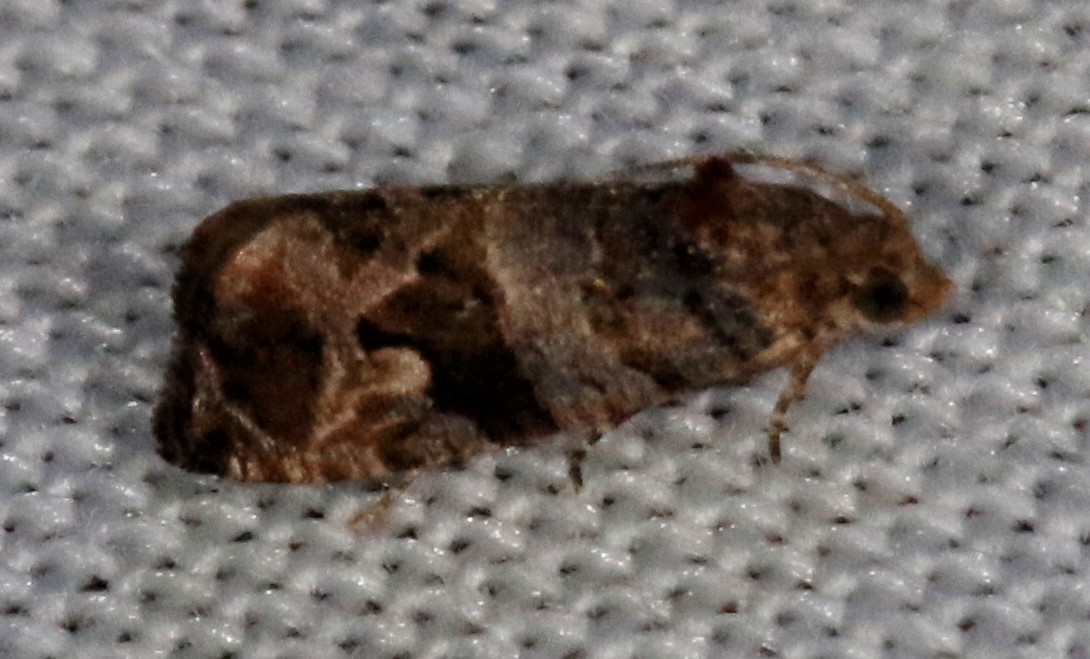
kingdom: Animalia
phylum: Arthropoda
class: Insecta
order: Lepidoptera
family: Tortricidae
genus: Paralobesia
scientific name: Paralobesia viteana
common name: Grape berry moth
